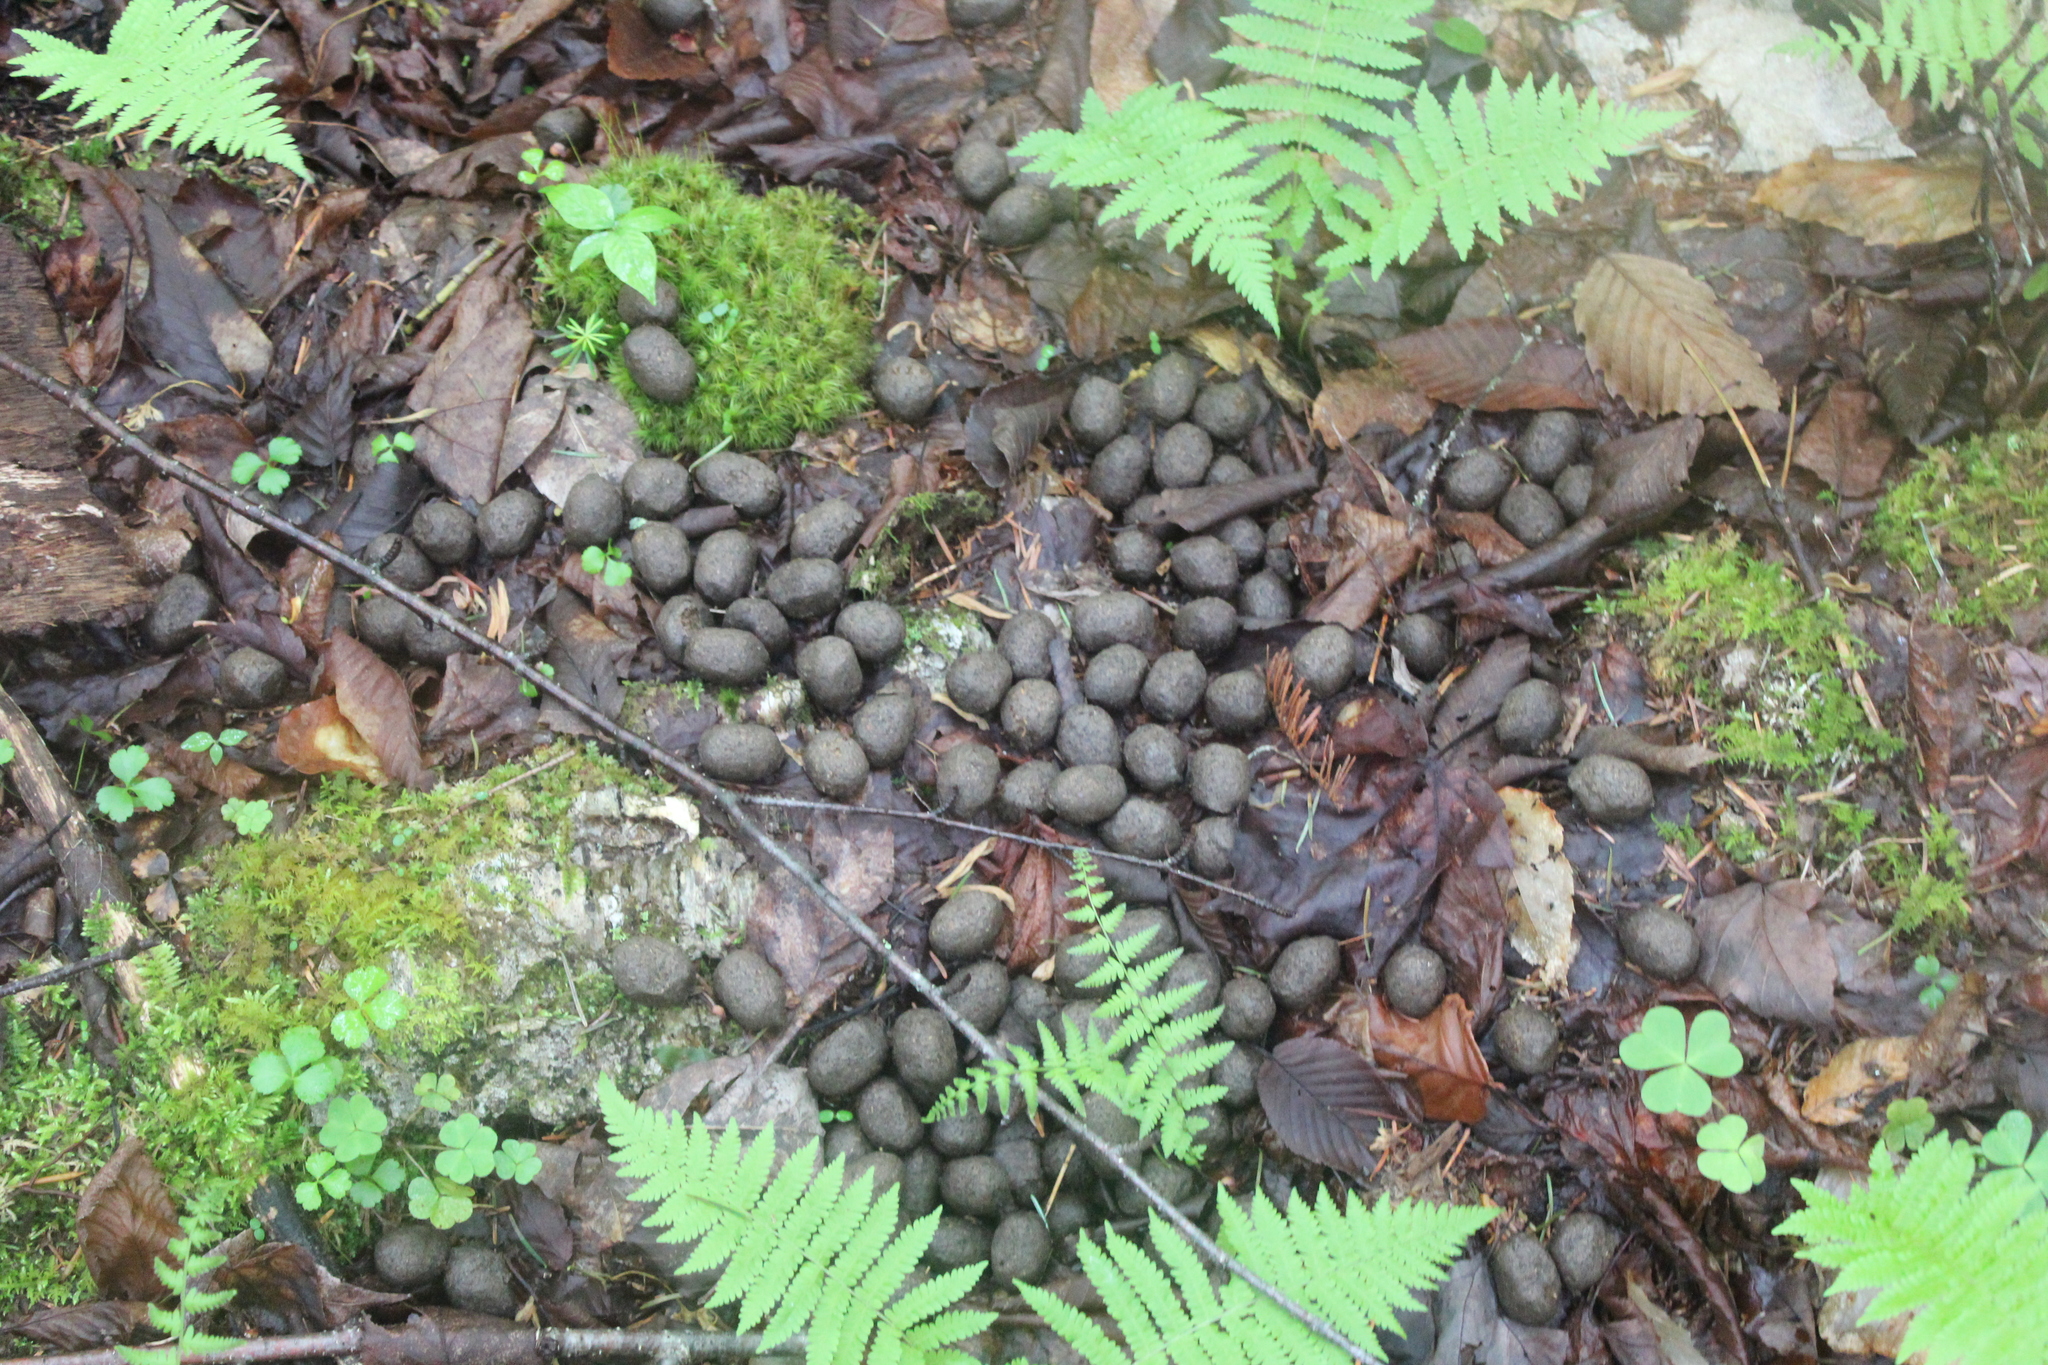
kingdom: Animalia
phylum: Chordata
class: Mammalia
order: Artiodactyla
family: Cervidae
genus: Alces
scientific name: Alces alces
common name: Moose
